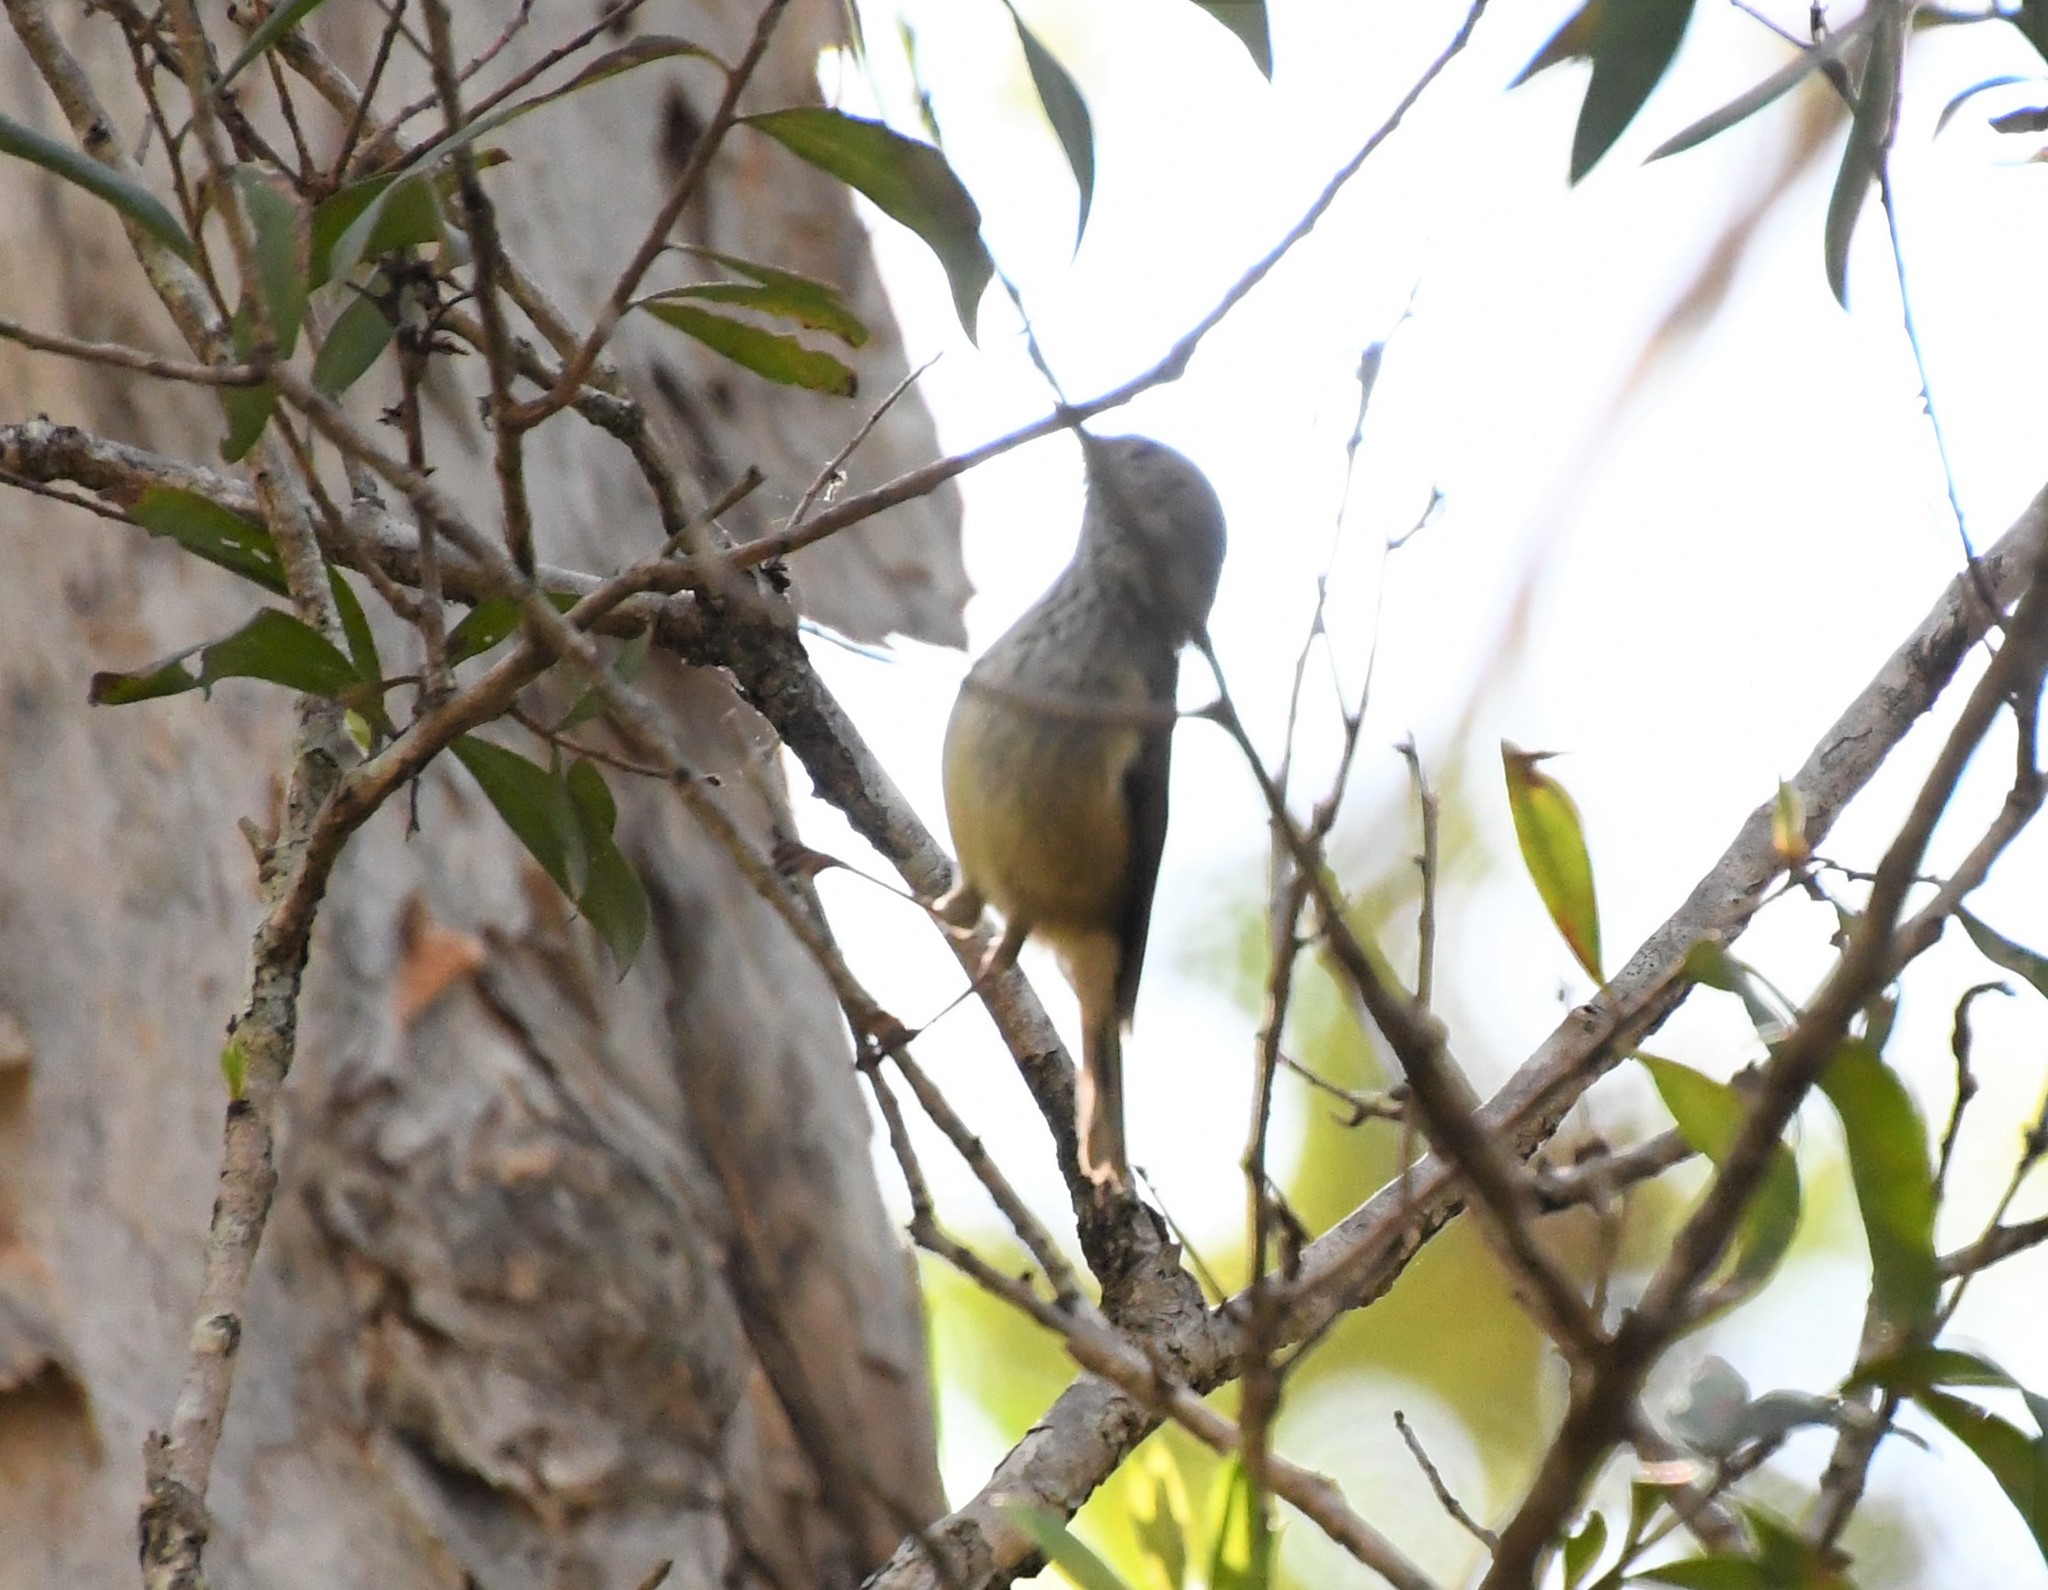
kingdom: Animalia
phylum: Chordata
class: Aves
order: Passeriformes
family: Acanthizidae
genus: Acanthiza
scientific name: Acanthiza pusilla
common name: Brown thornbill
